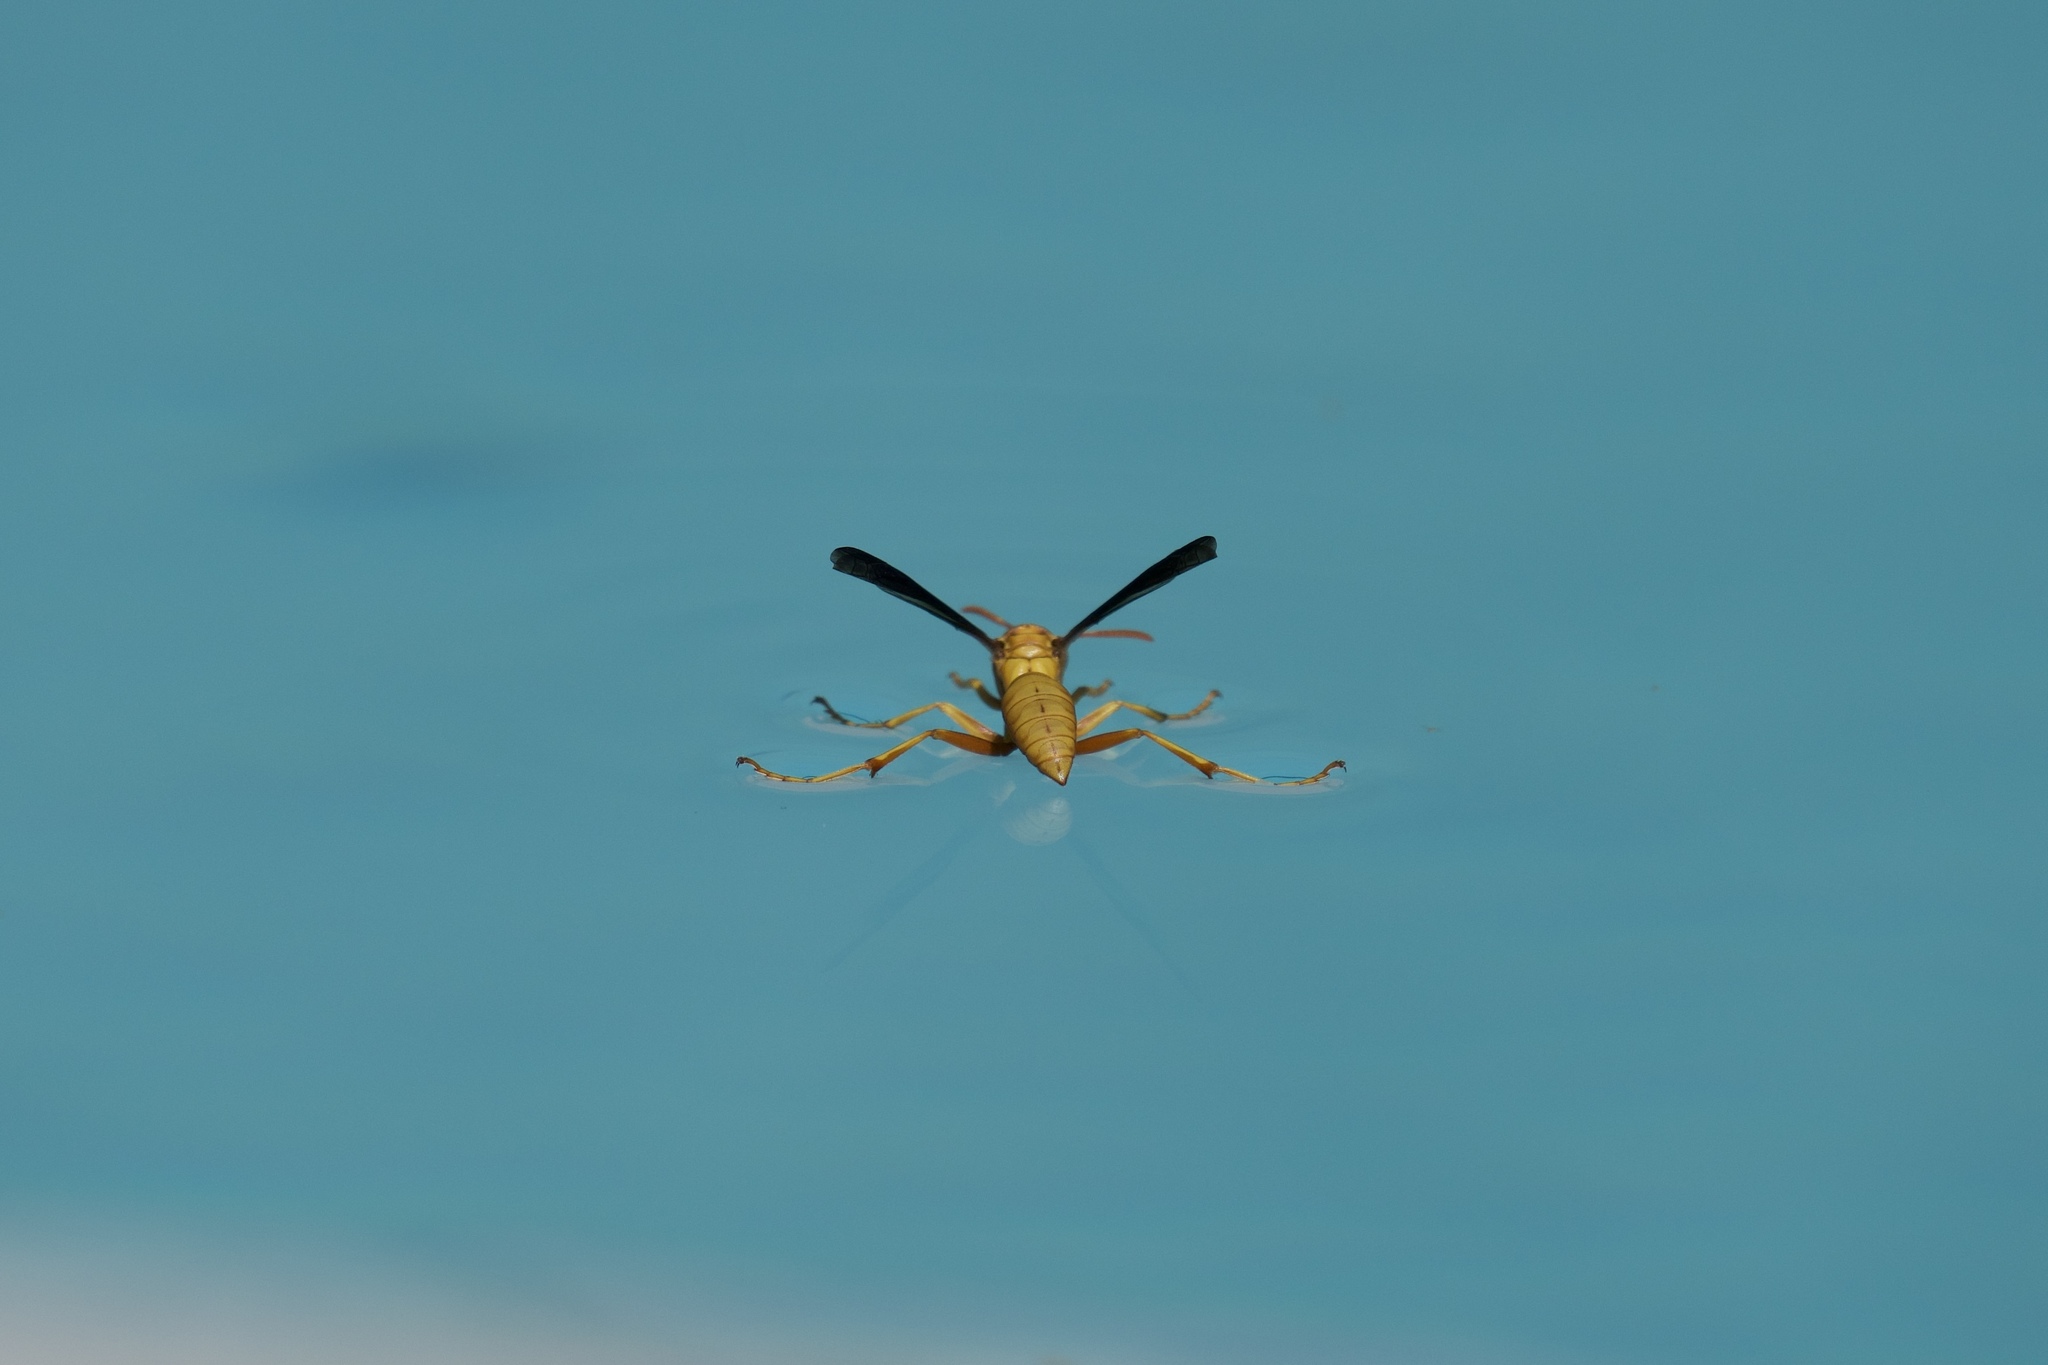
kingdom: Animalia
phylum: Arthropoda
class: Insecta
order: Hymenoptera
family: Eumenidae
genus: Polistes
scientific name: Polistes flavus
